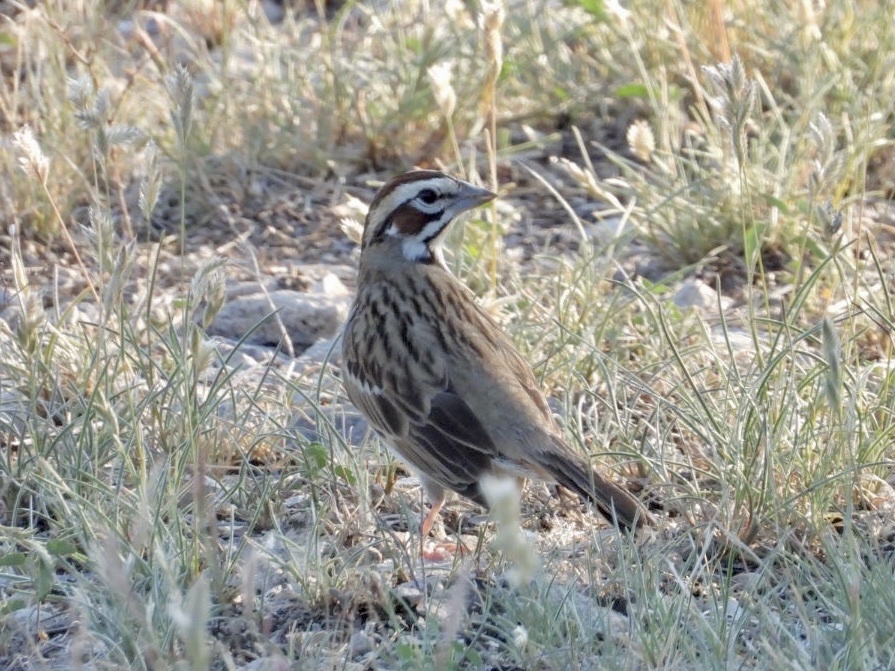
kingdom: Animalia
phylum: Chordata
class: Aves
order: Passeriformes
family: Passerellidae
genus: Chondestes
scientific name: Chondestes grammacus
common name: Lark sparrow
